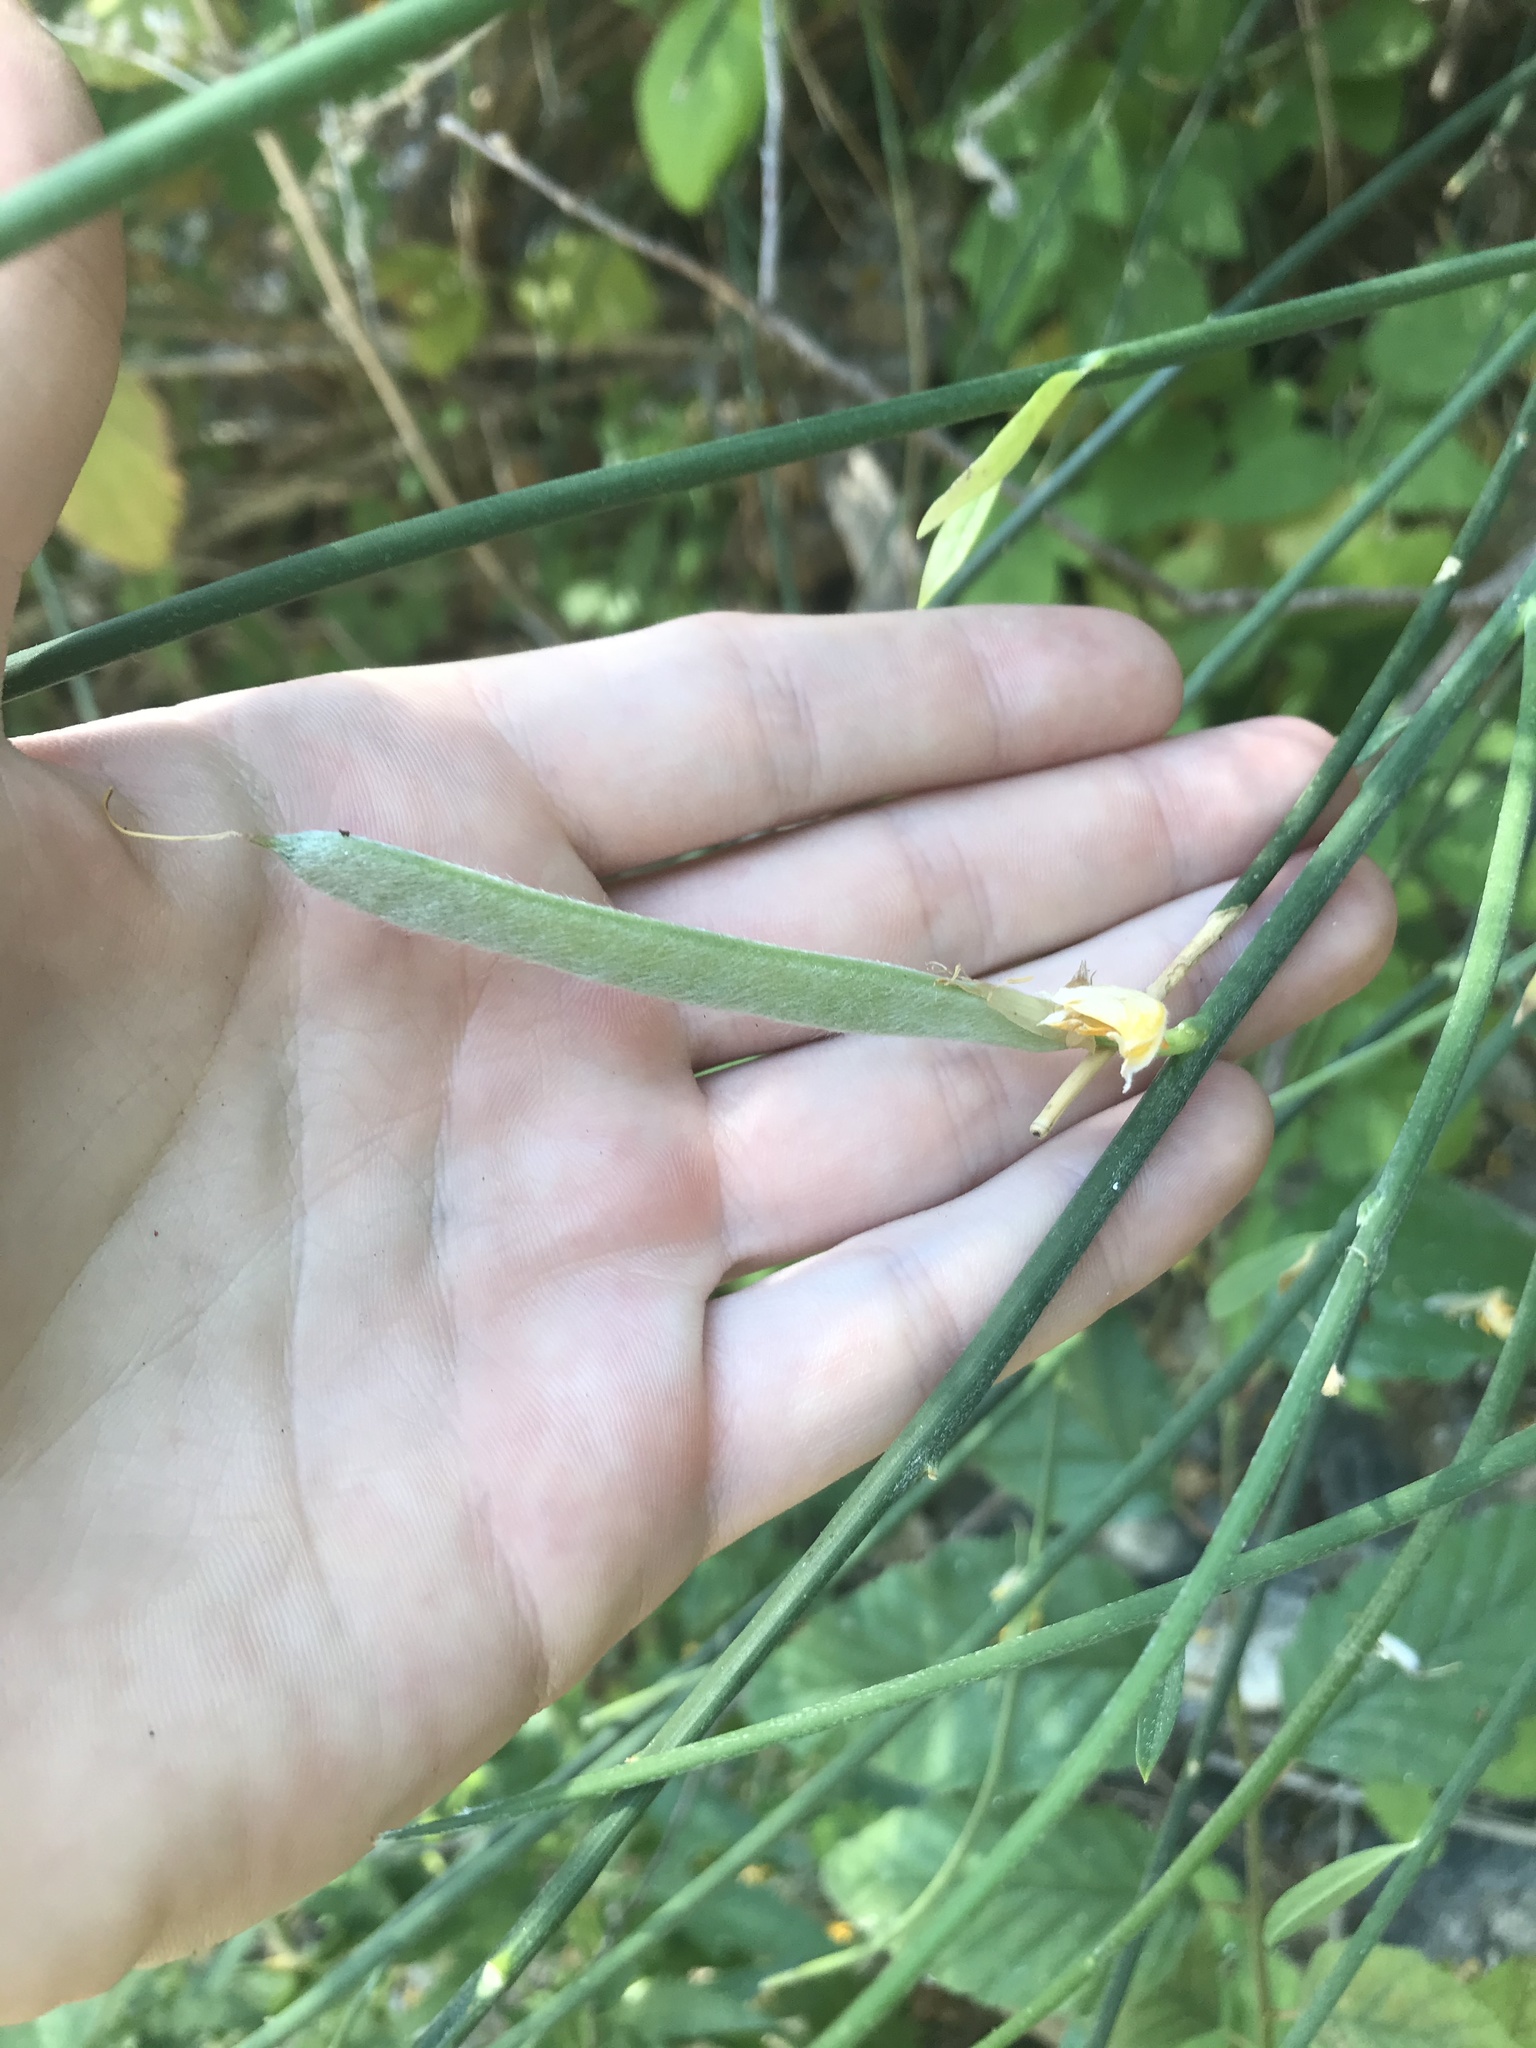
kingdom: Plantae
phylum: Tracheophyta
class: Magnoliopsida
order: Fabales
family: Fabaceae
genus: Spartium
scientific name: Spartium junceum
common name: Spanish broom
